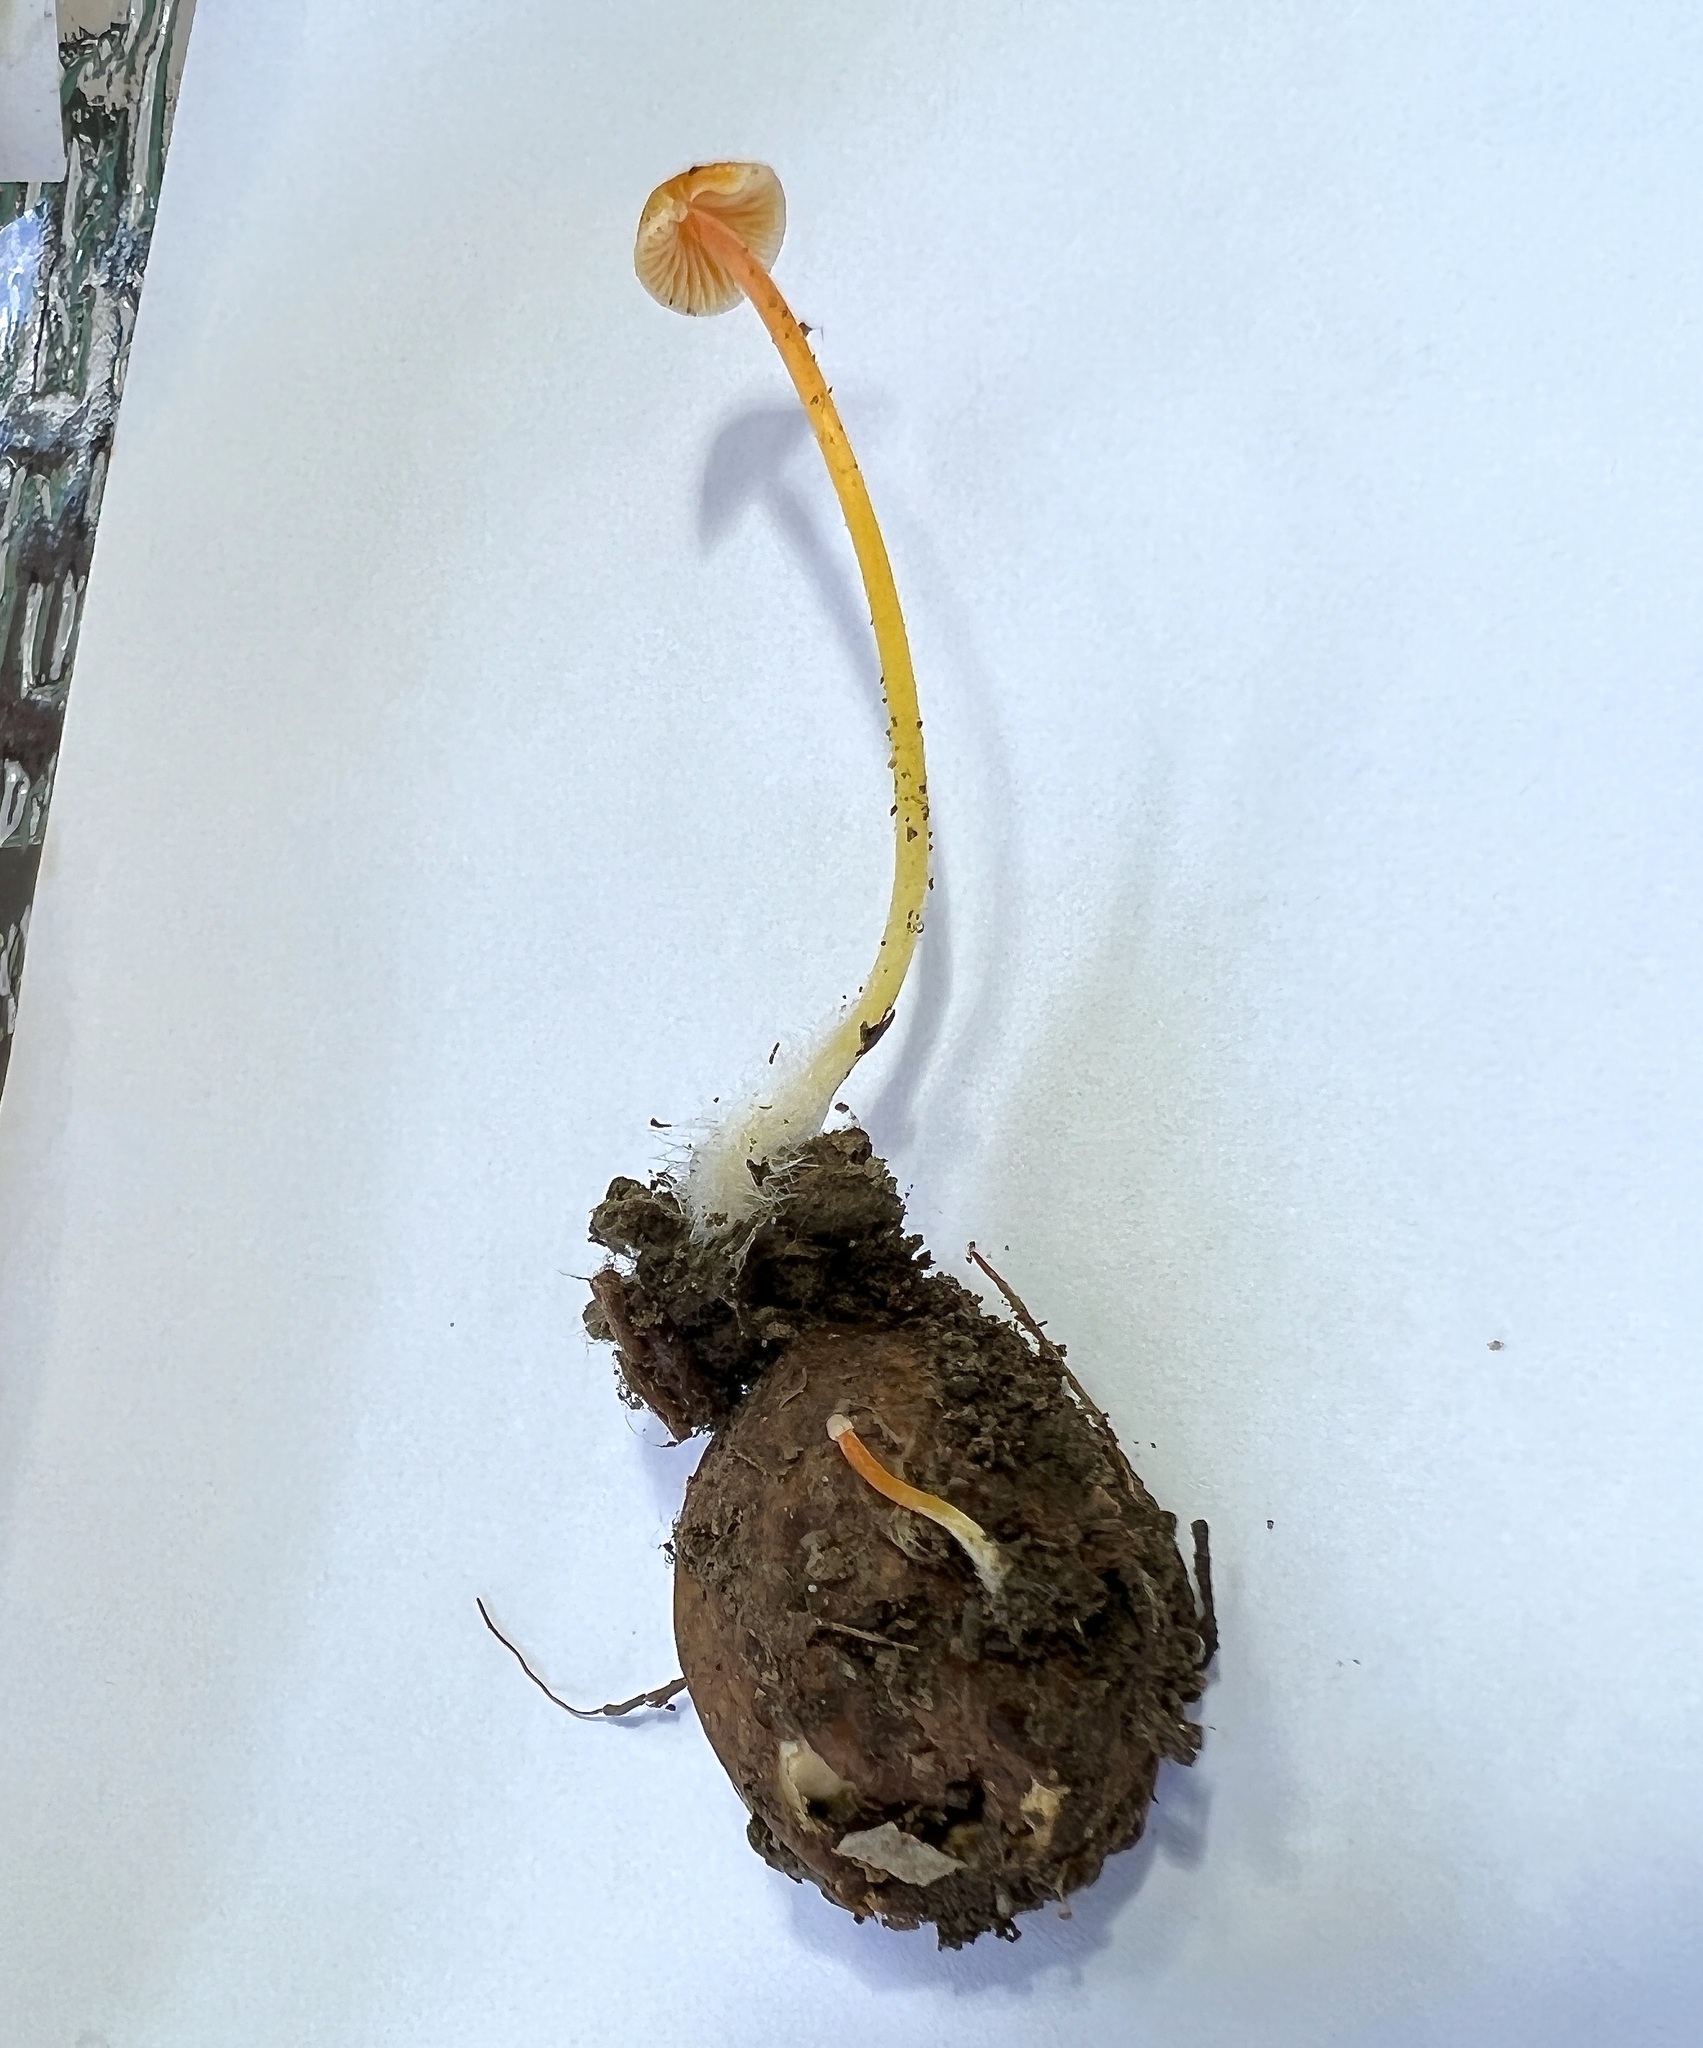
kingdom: Fungi
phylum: Basidiomycota
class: Agaricomycetes
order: Agaricales
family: Mycenaceae
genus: Mycena
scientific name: Mycena crocea
